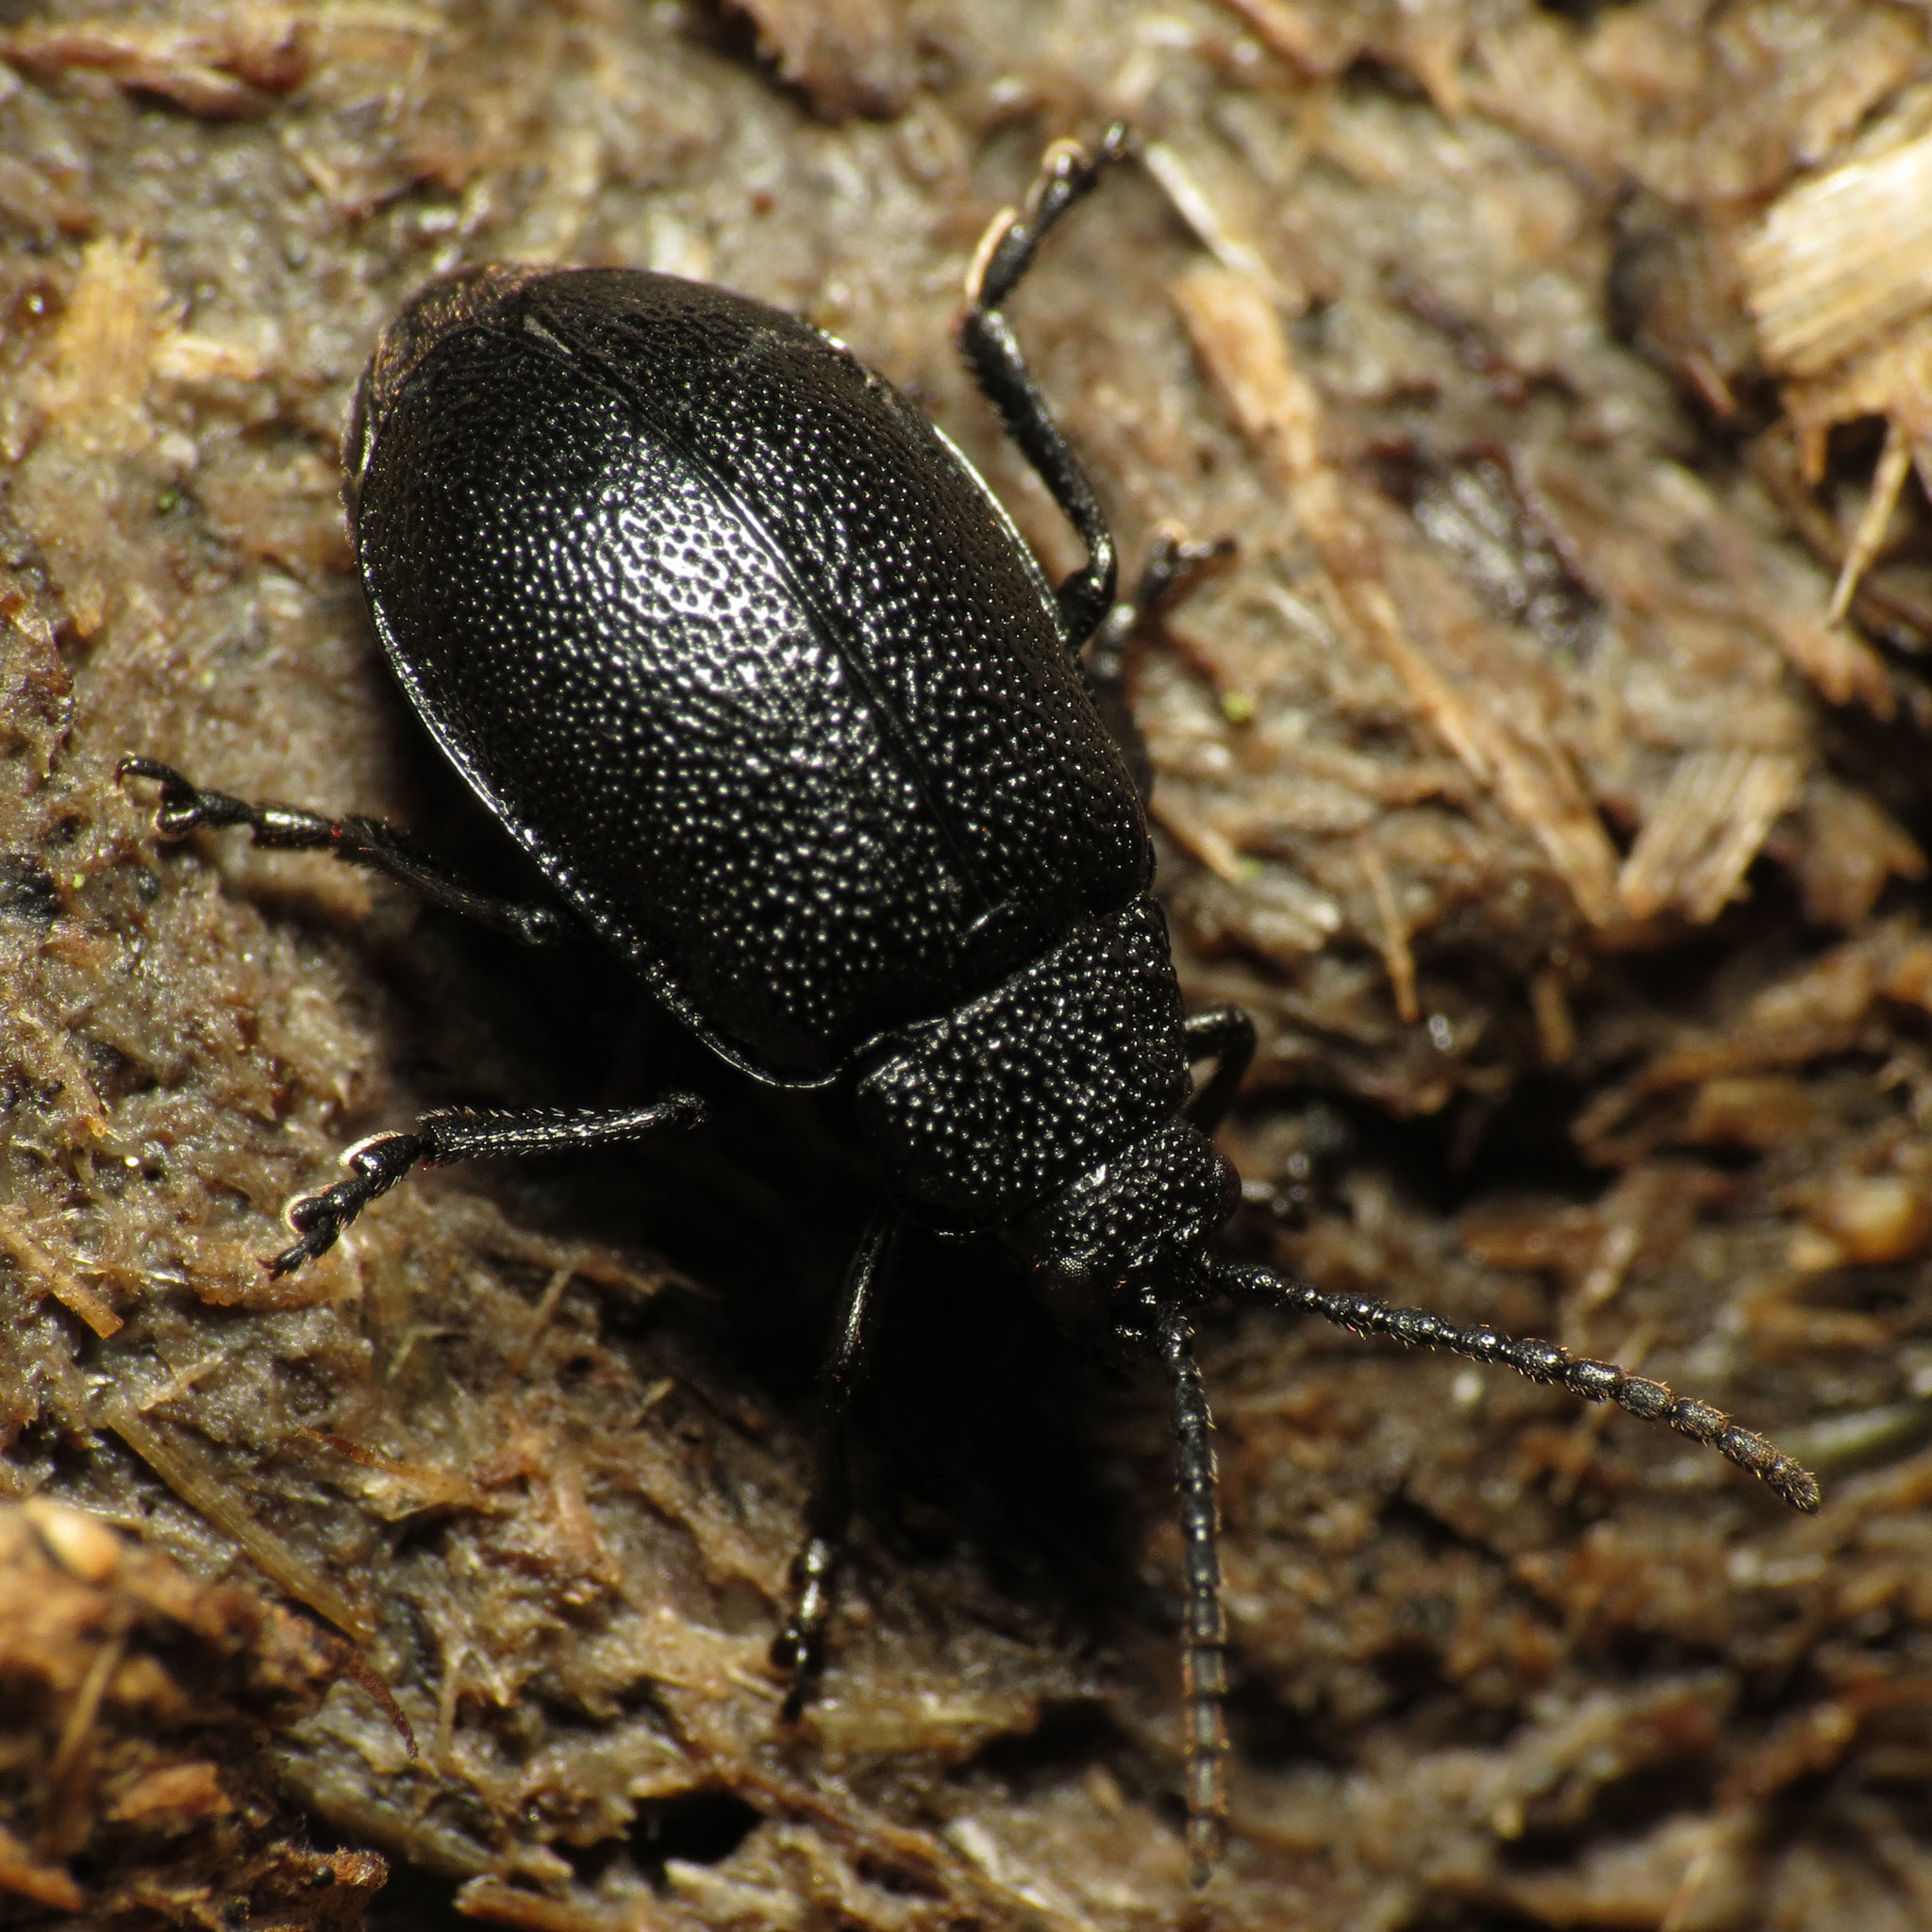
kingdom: Animalia
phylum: Arthropoda
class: Insecta
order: Coleoptera
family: Chrysomelidae
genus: Galeruca
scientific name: Galeruca tanaceti
